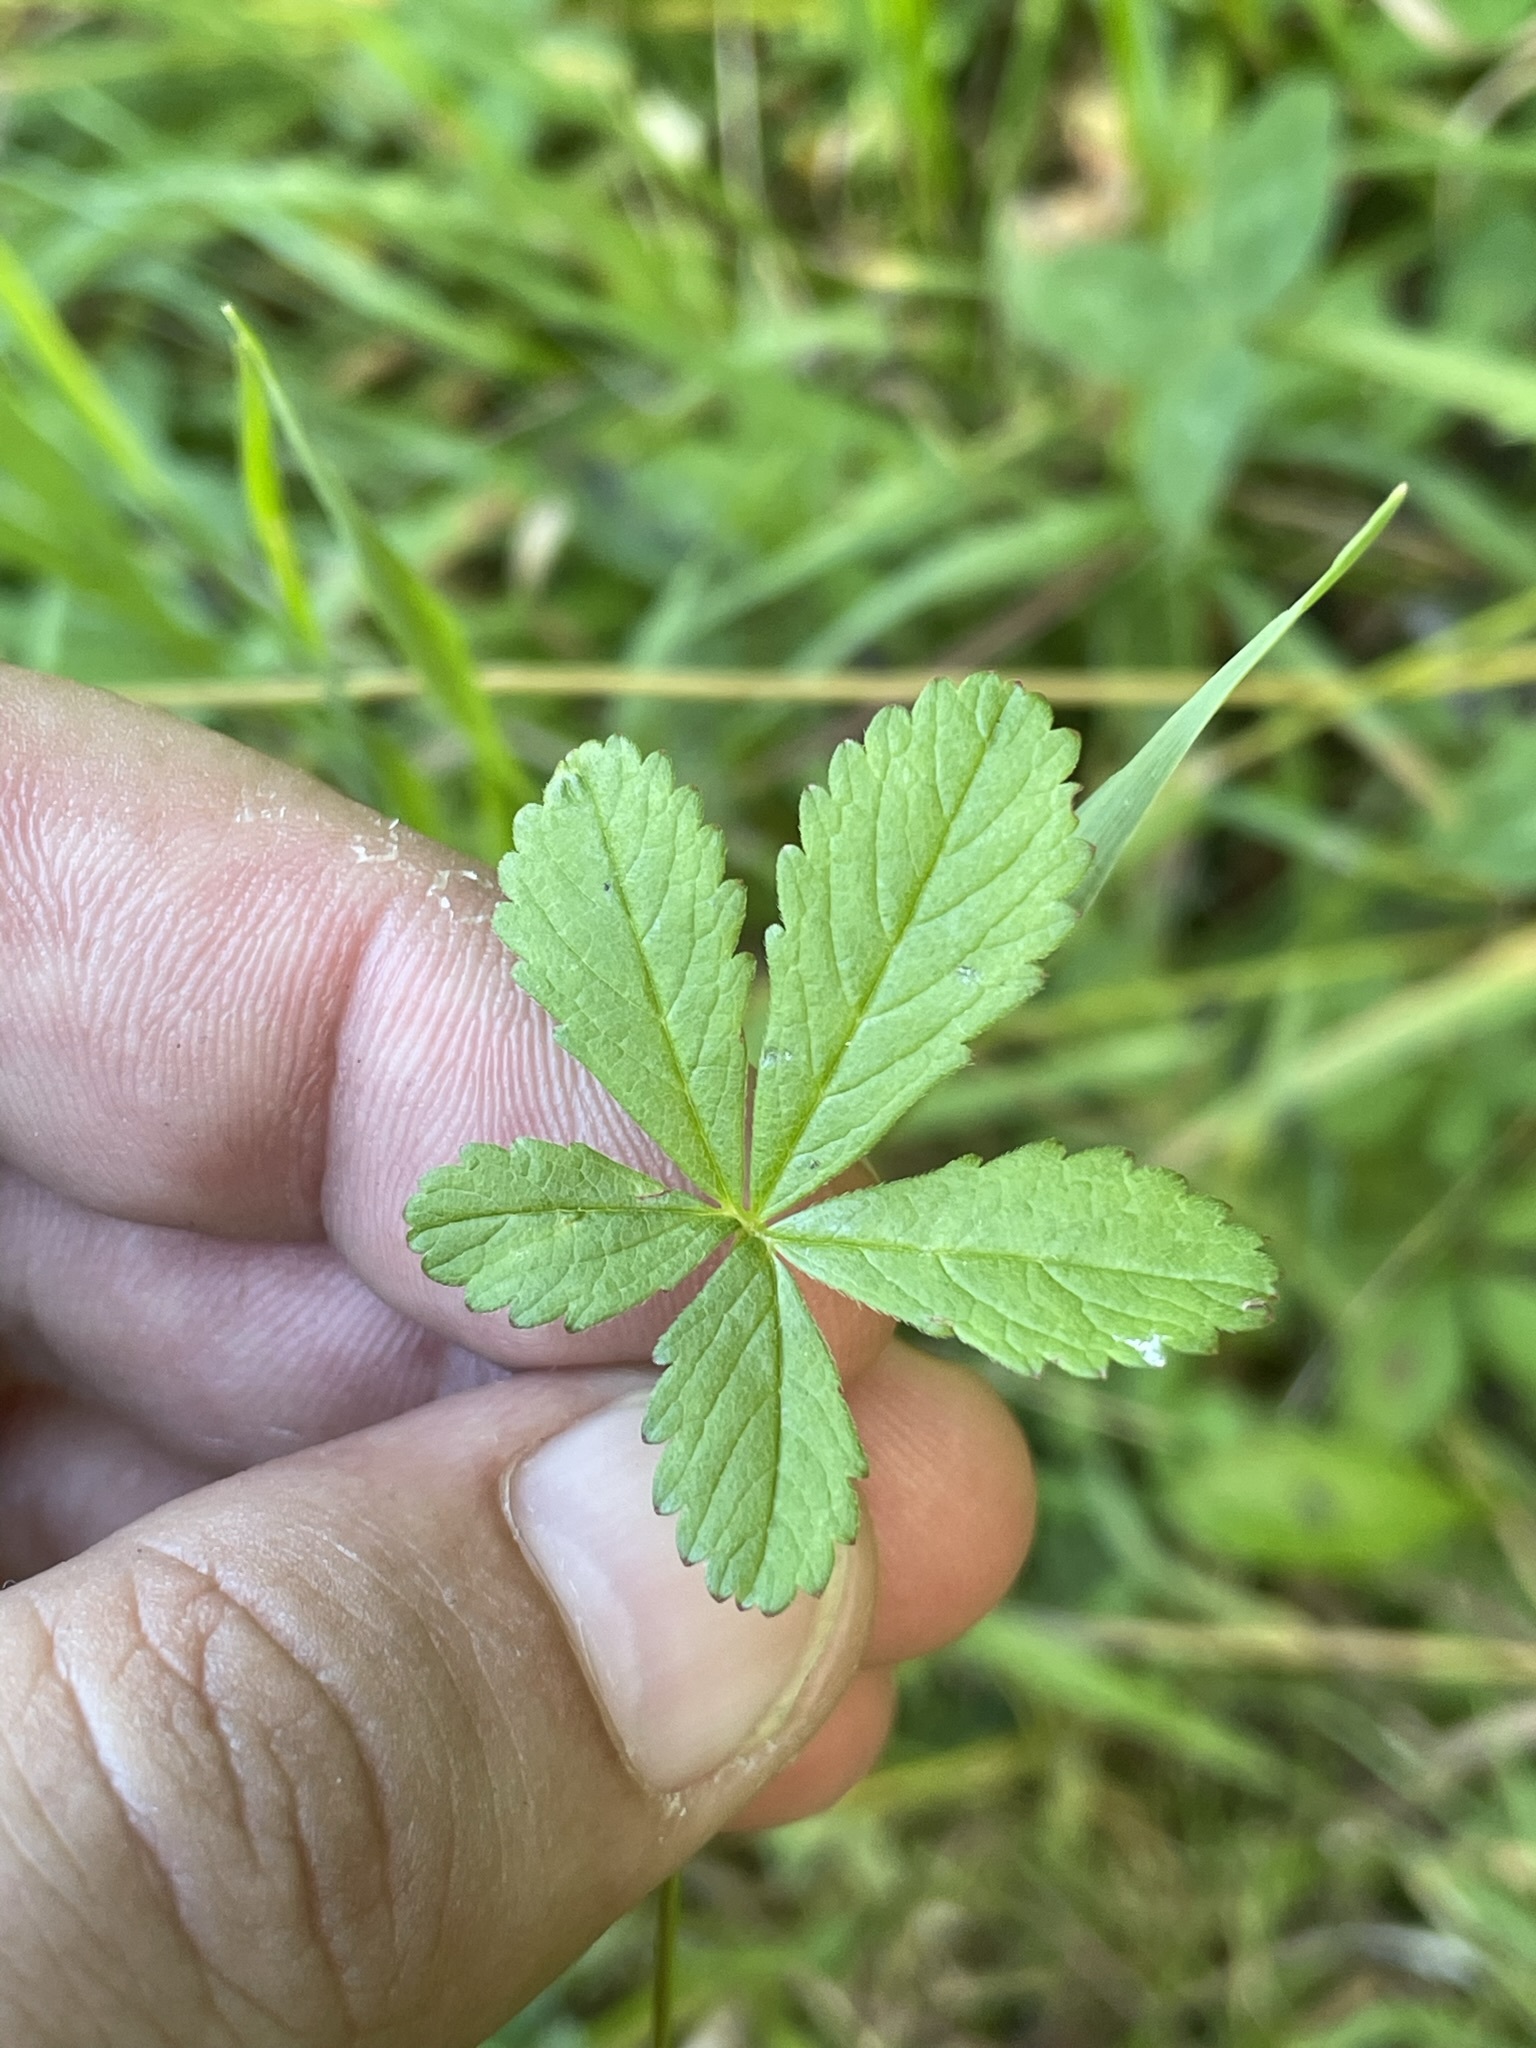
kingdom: Plantae
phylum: Tracheophyta
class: Magnoliopsida
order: Rosales
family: Rosaceae
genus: Potentilla
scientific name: Potentilla reptans
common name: Creeping cinquefoil
